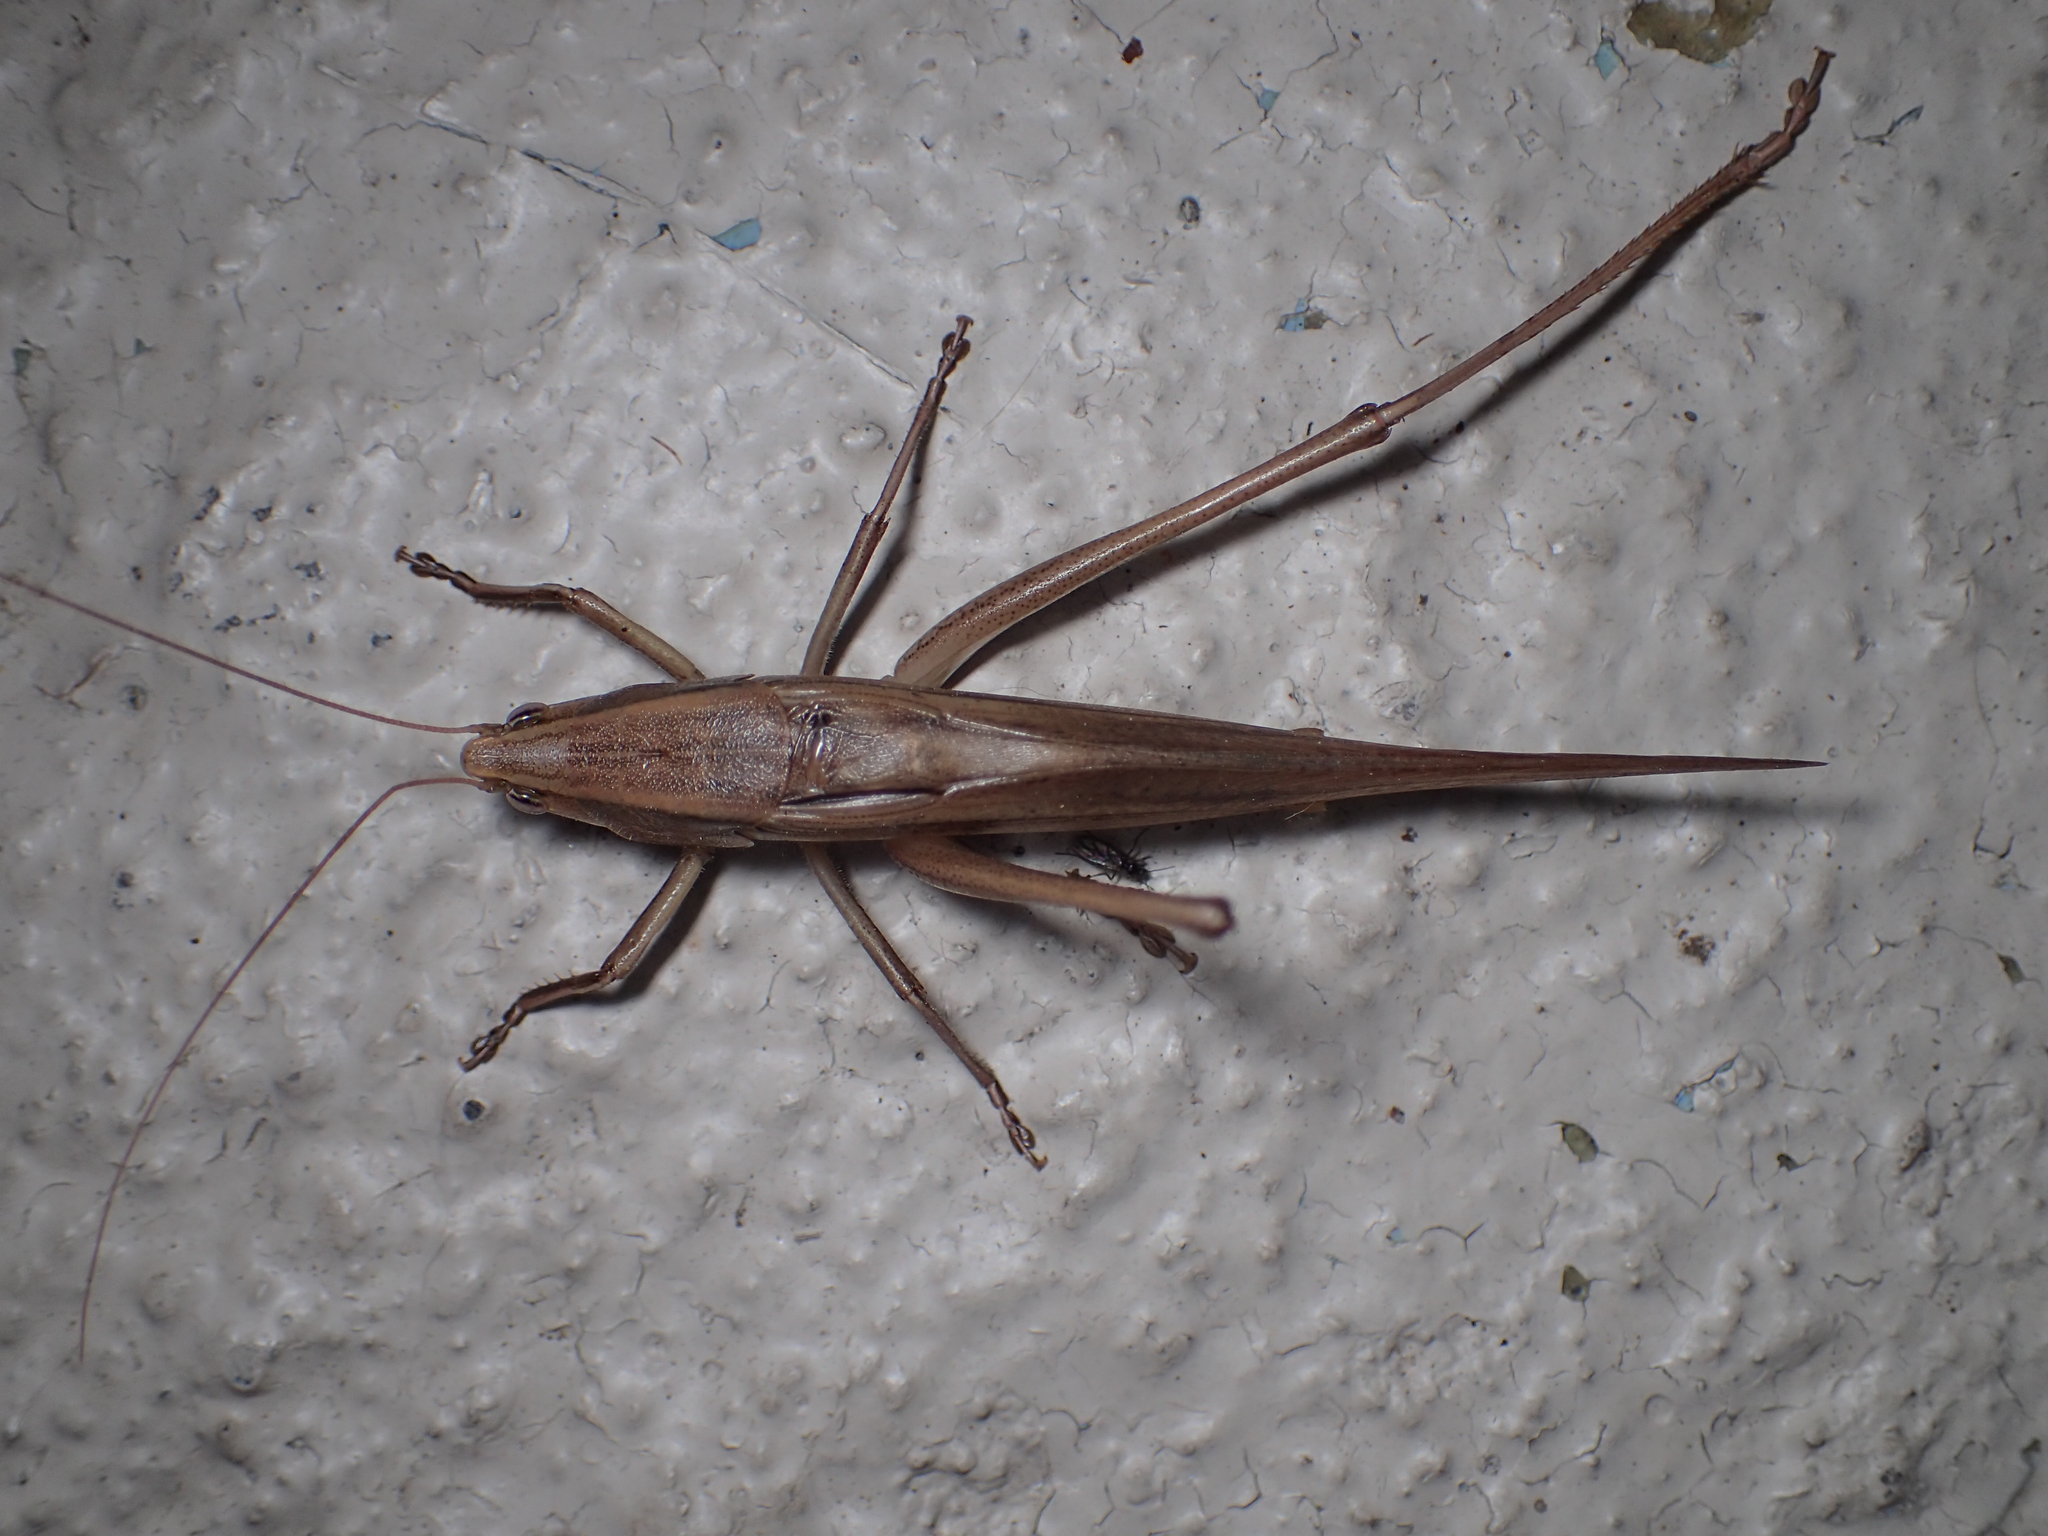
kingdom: Animalia
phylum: Arthropoda
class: Insecta
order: Orthoptera
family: Tettigoniidae
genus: Neoconocephalus
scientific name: Neoconocephalus triops
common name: Broad-tipped conehead
